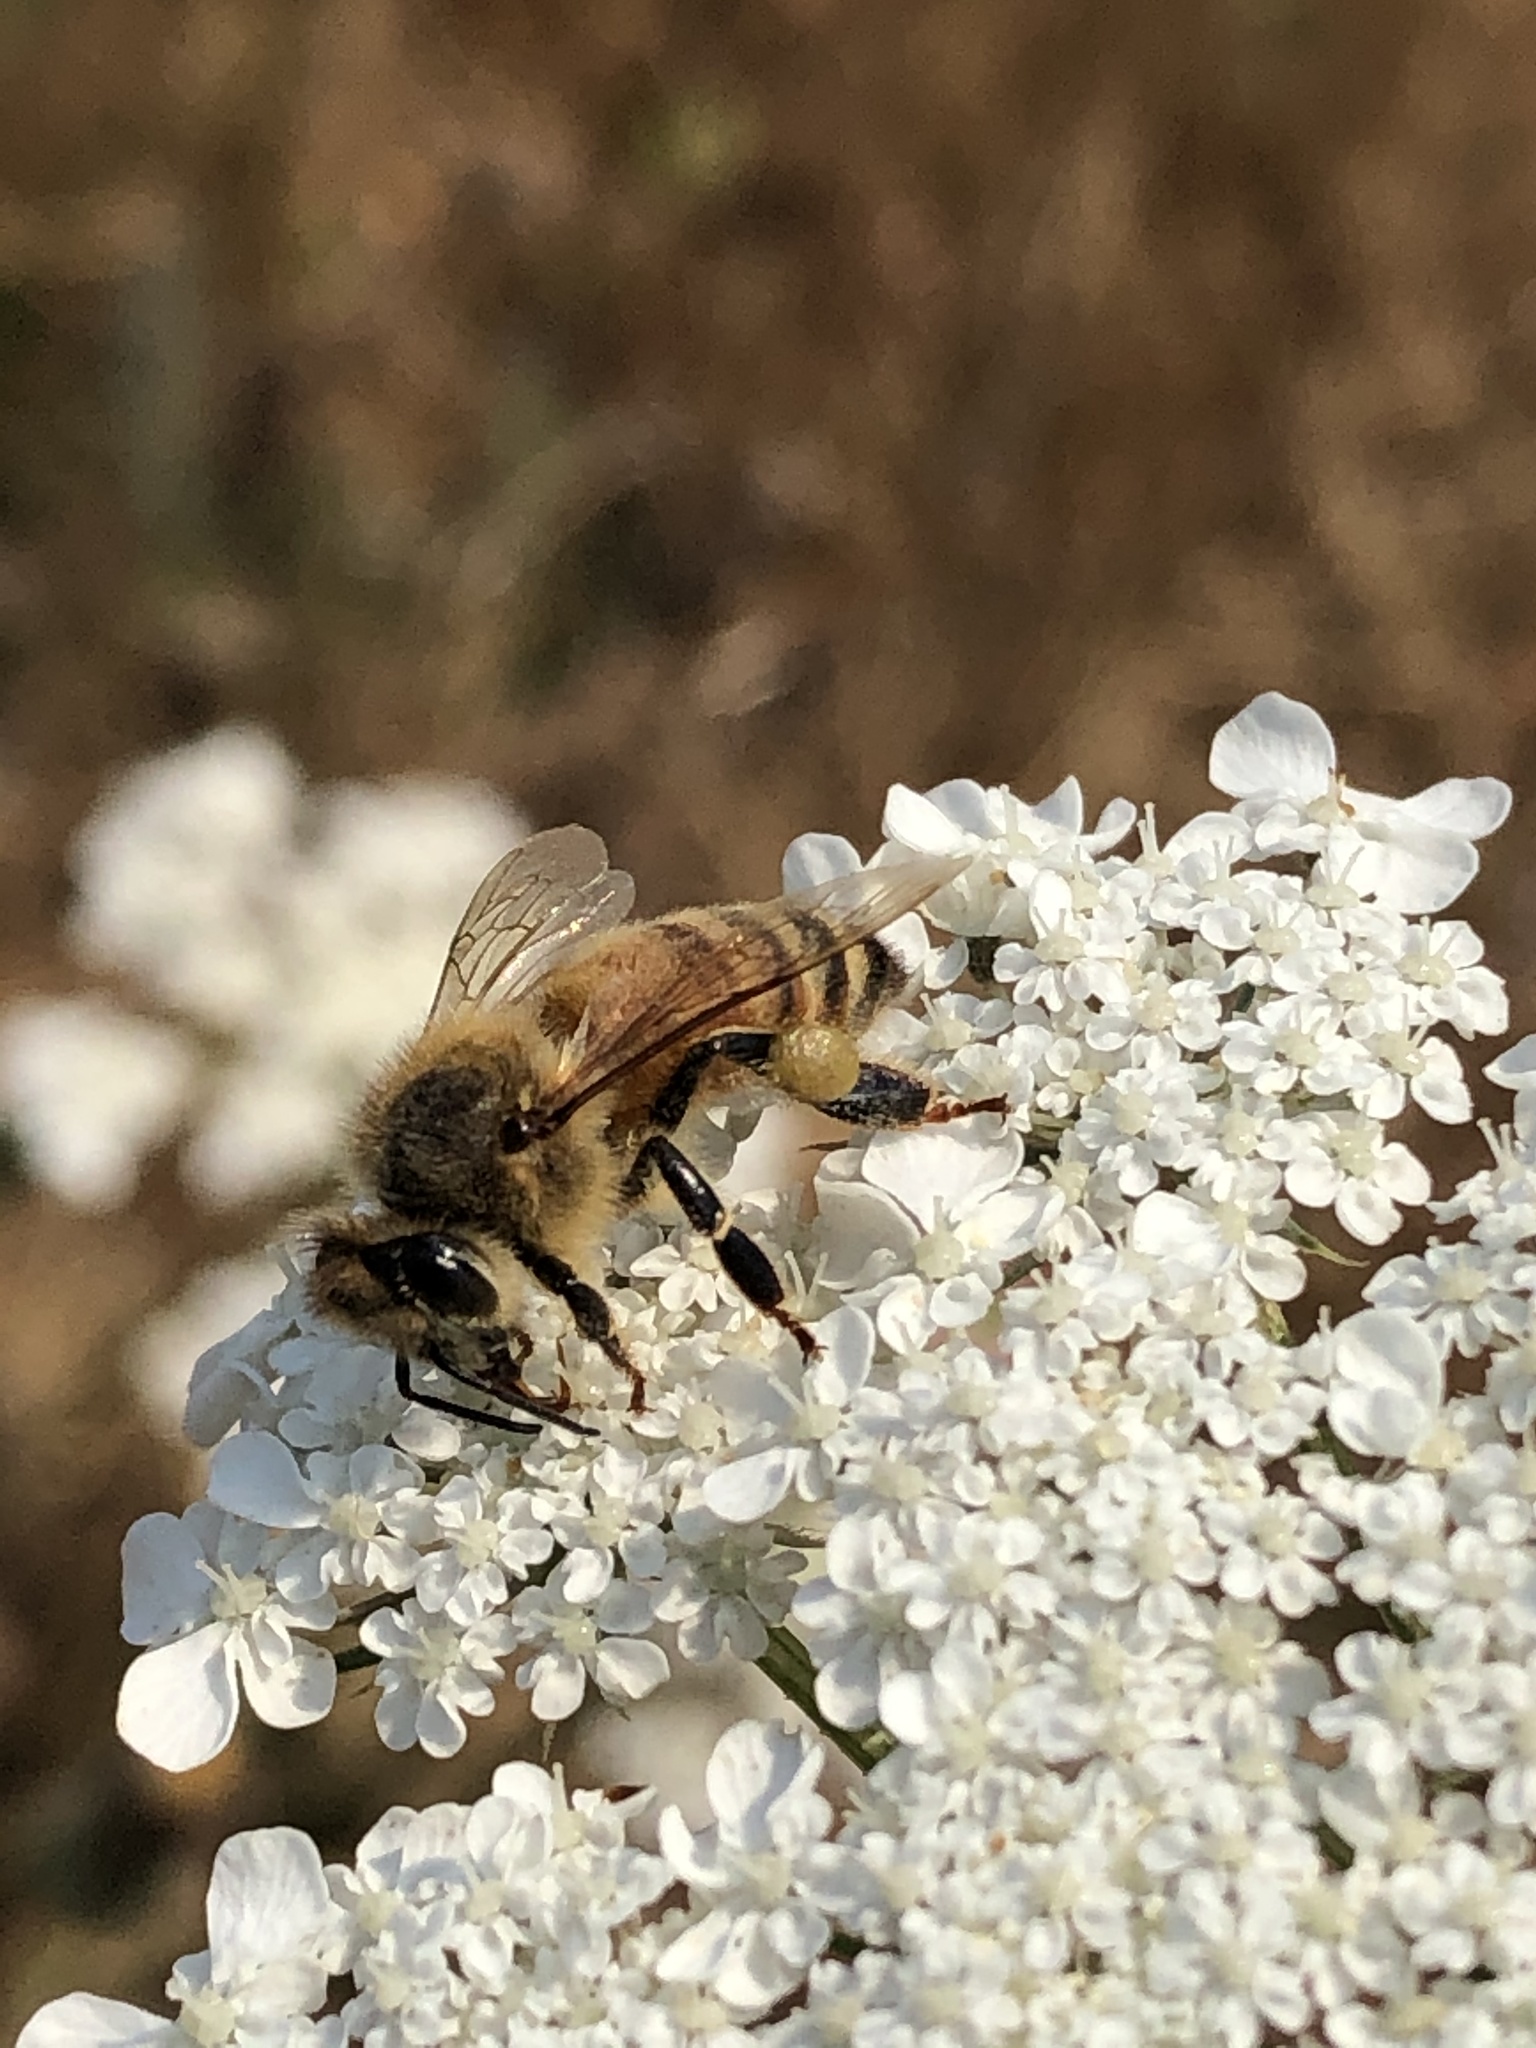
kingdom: Animalia
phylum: Arthropoda
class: Insecta
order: Hymenoptera
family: Apidae
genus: Apis
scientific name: Apis mellifera
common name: Honey bee
